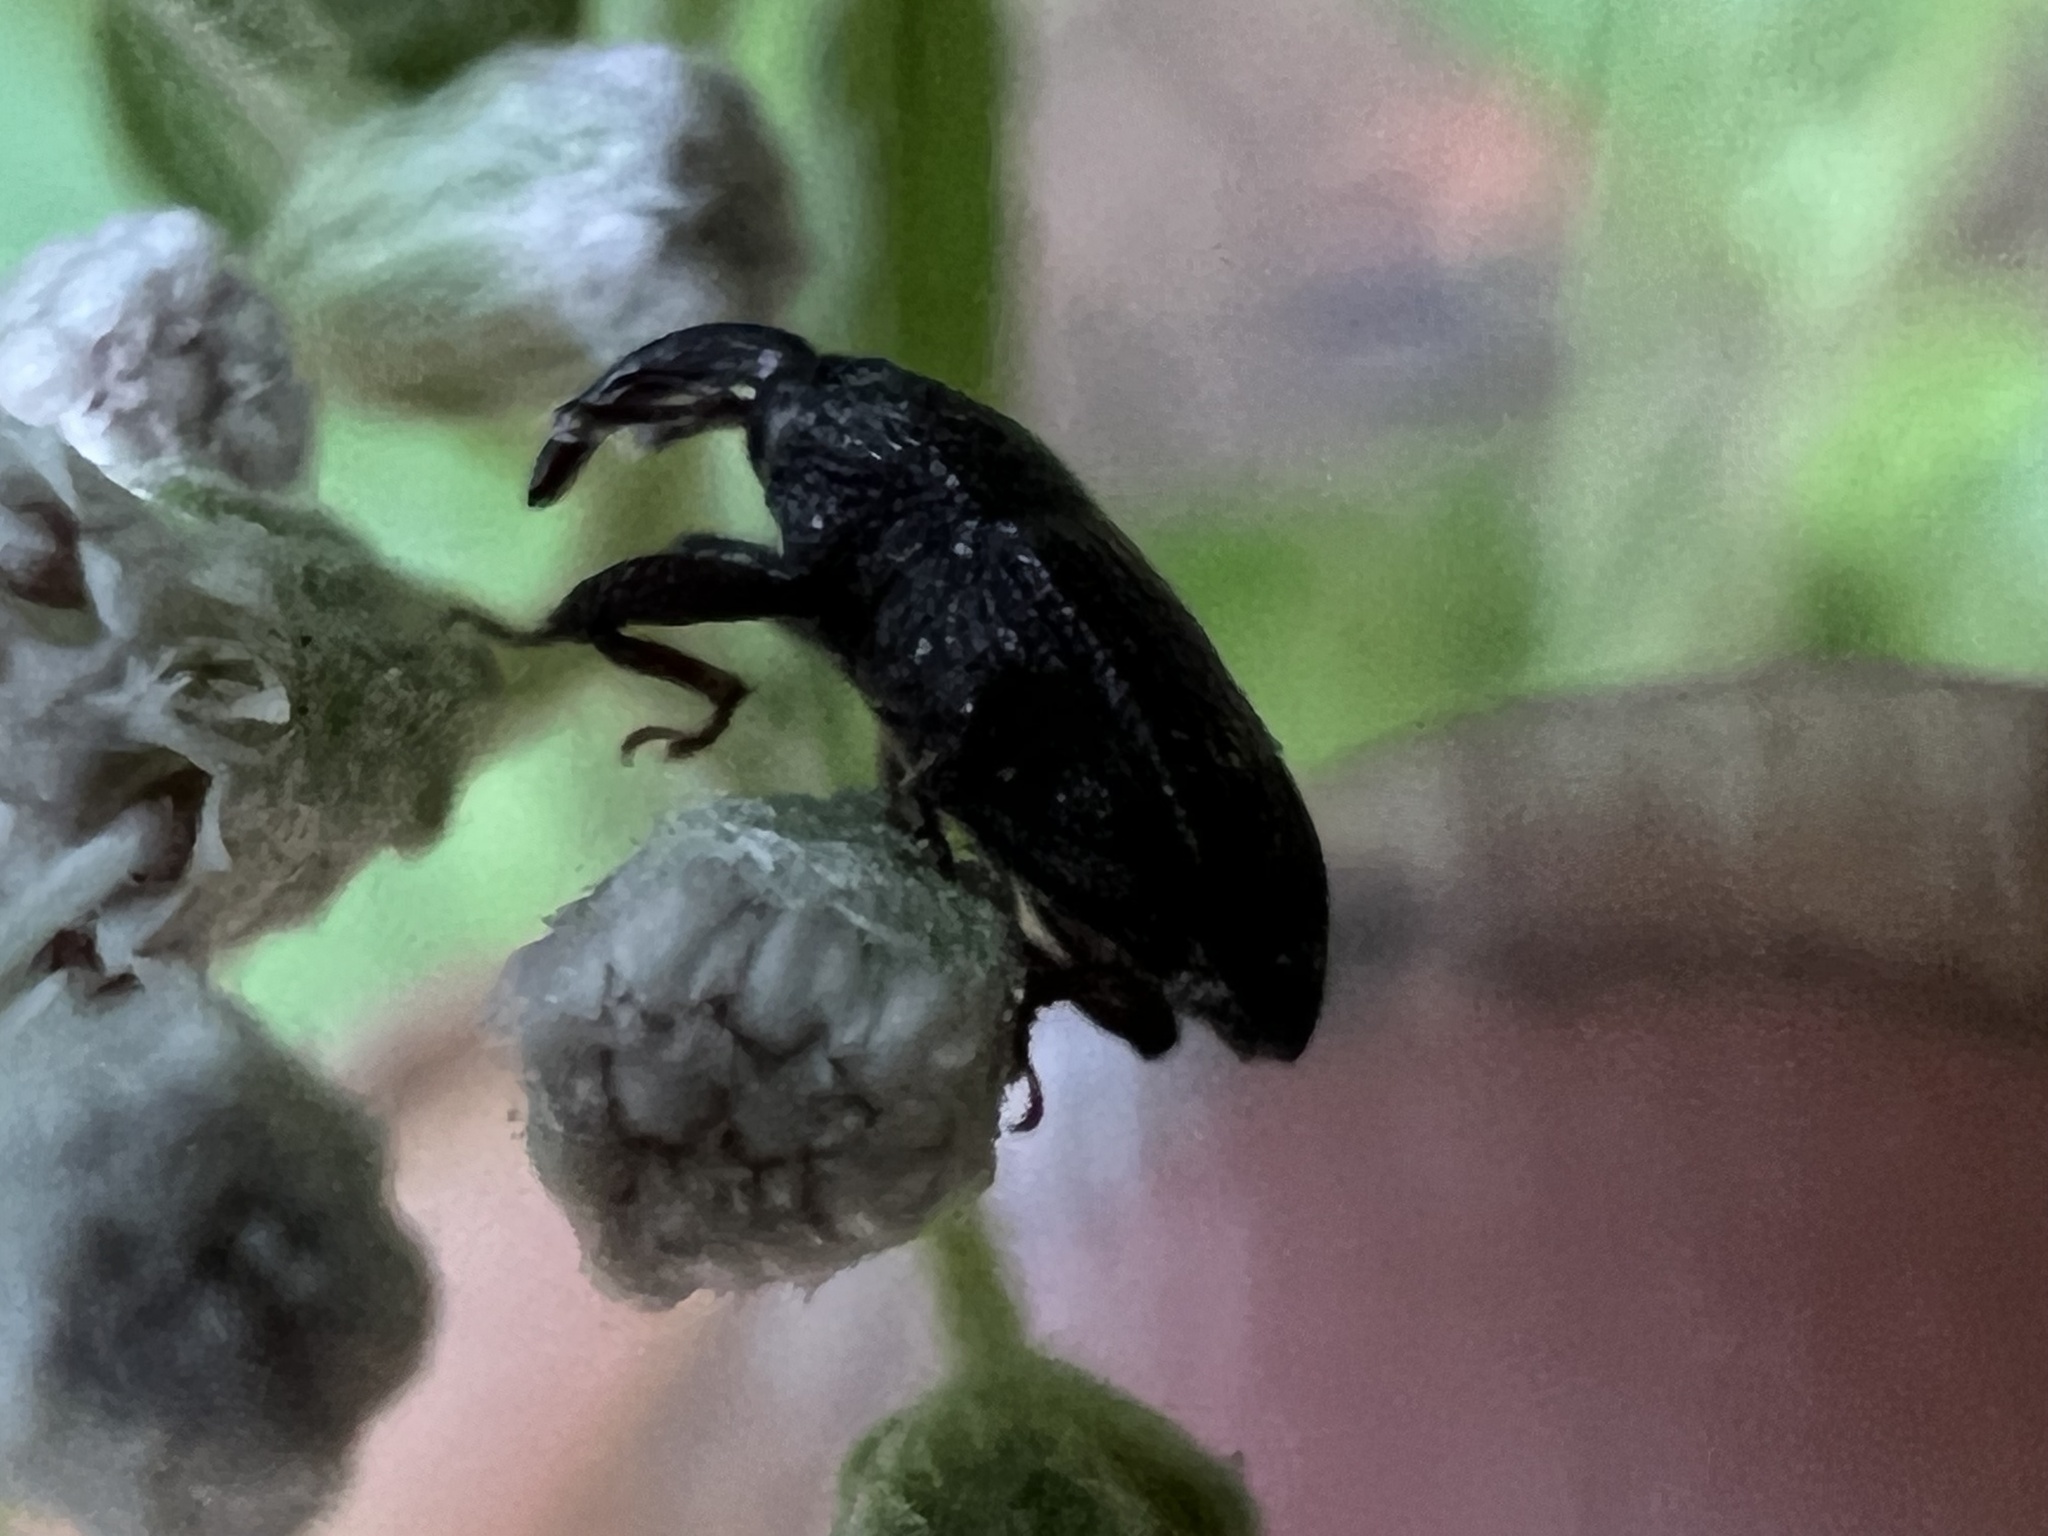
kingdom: Animalia
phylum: Arthropoda
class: Insecta
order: Coleoptera
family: Curculionidae
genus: Glyptobaris
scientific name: Glyptobaris lecontei
